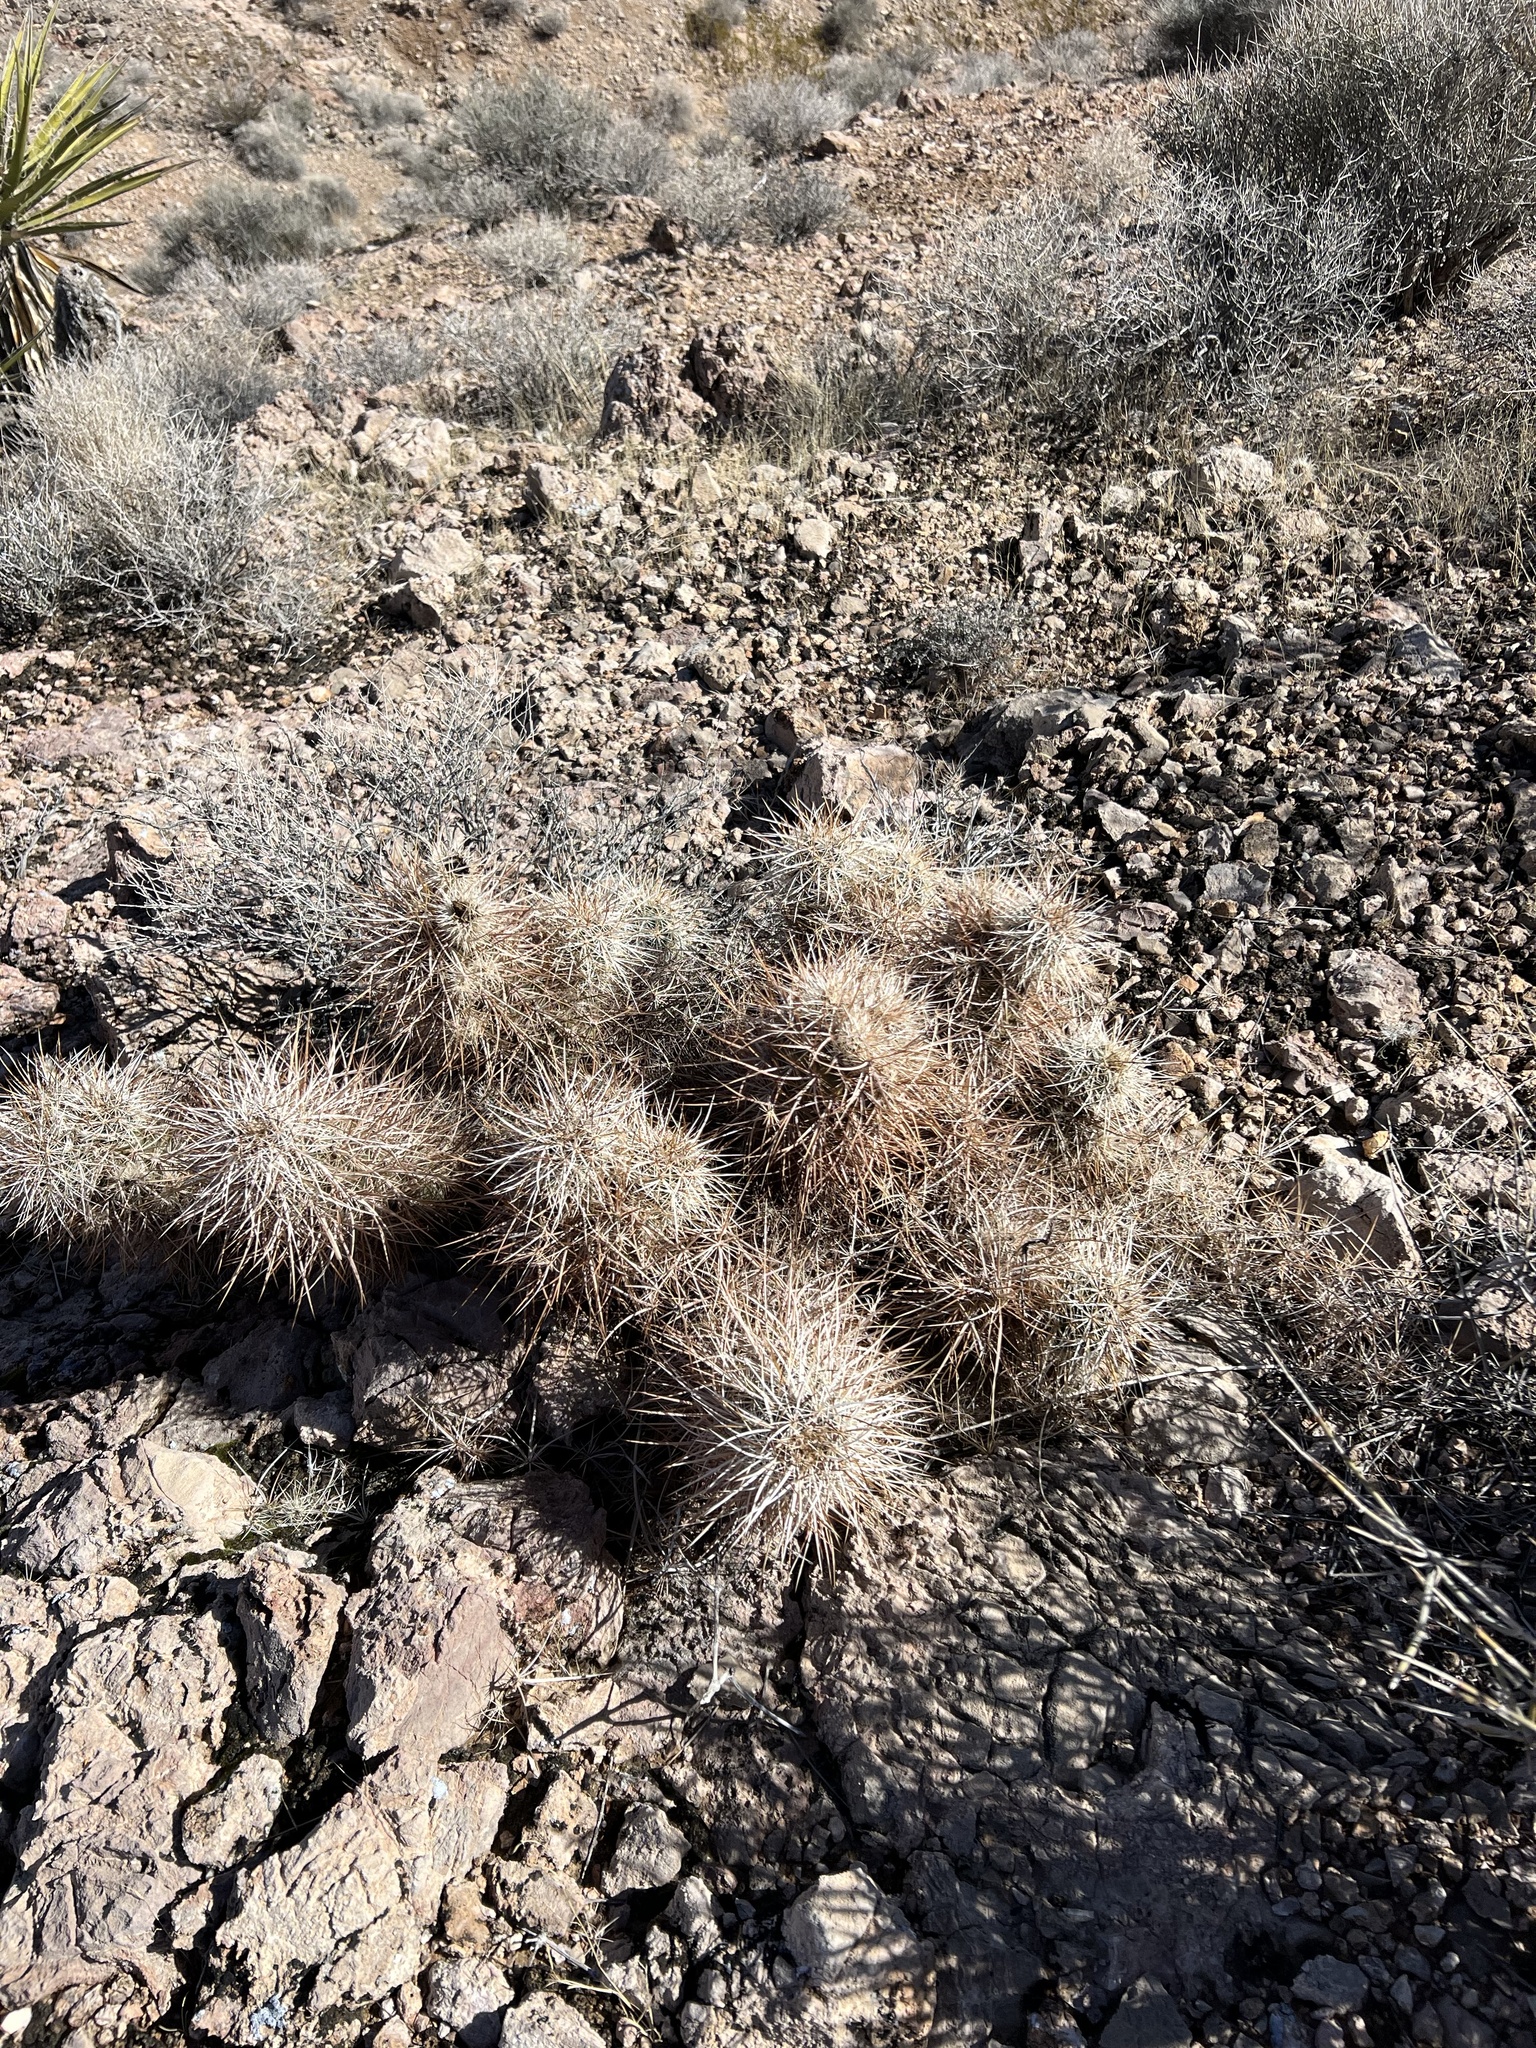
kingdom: Plantae
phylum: Tracheophyta
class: Magnoliopsida
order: Caryophyllales
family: Cactaceae
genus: Echinocereus
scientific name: Echinocereus engelmannii
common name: Engelmann's hedgehog cactus
